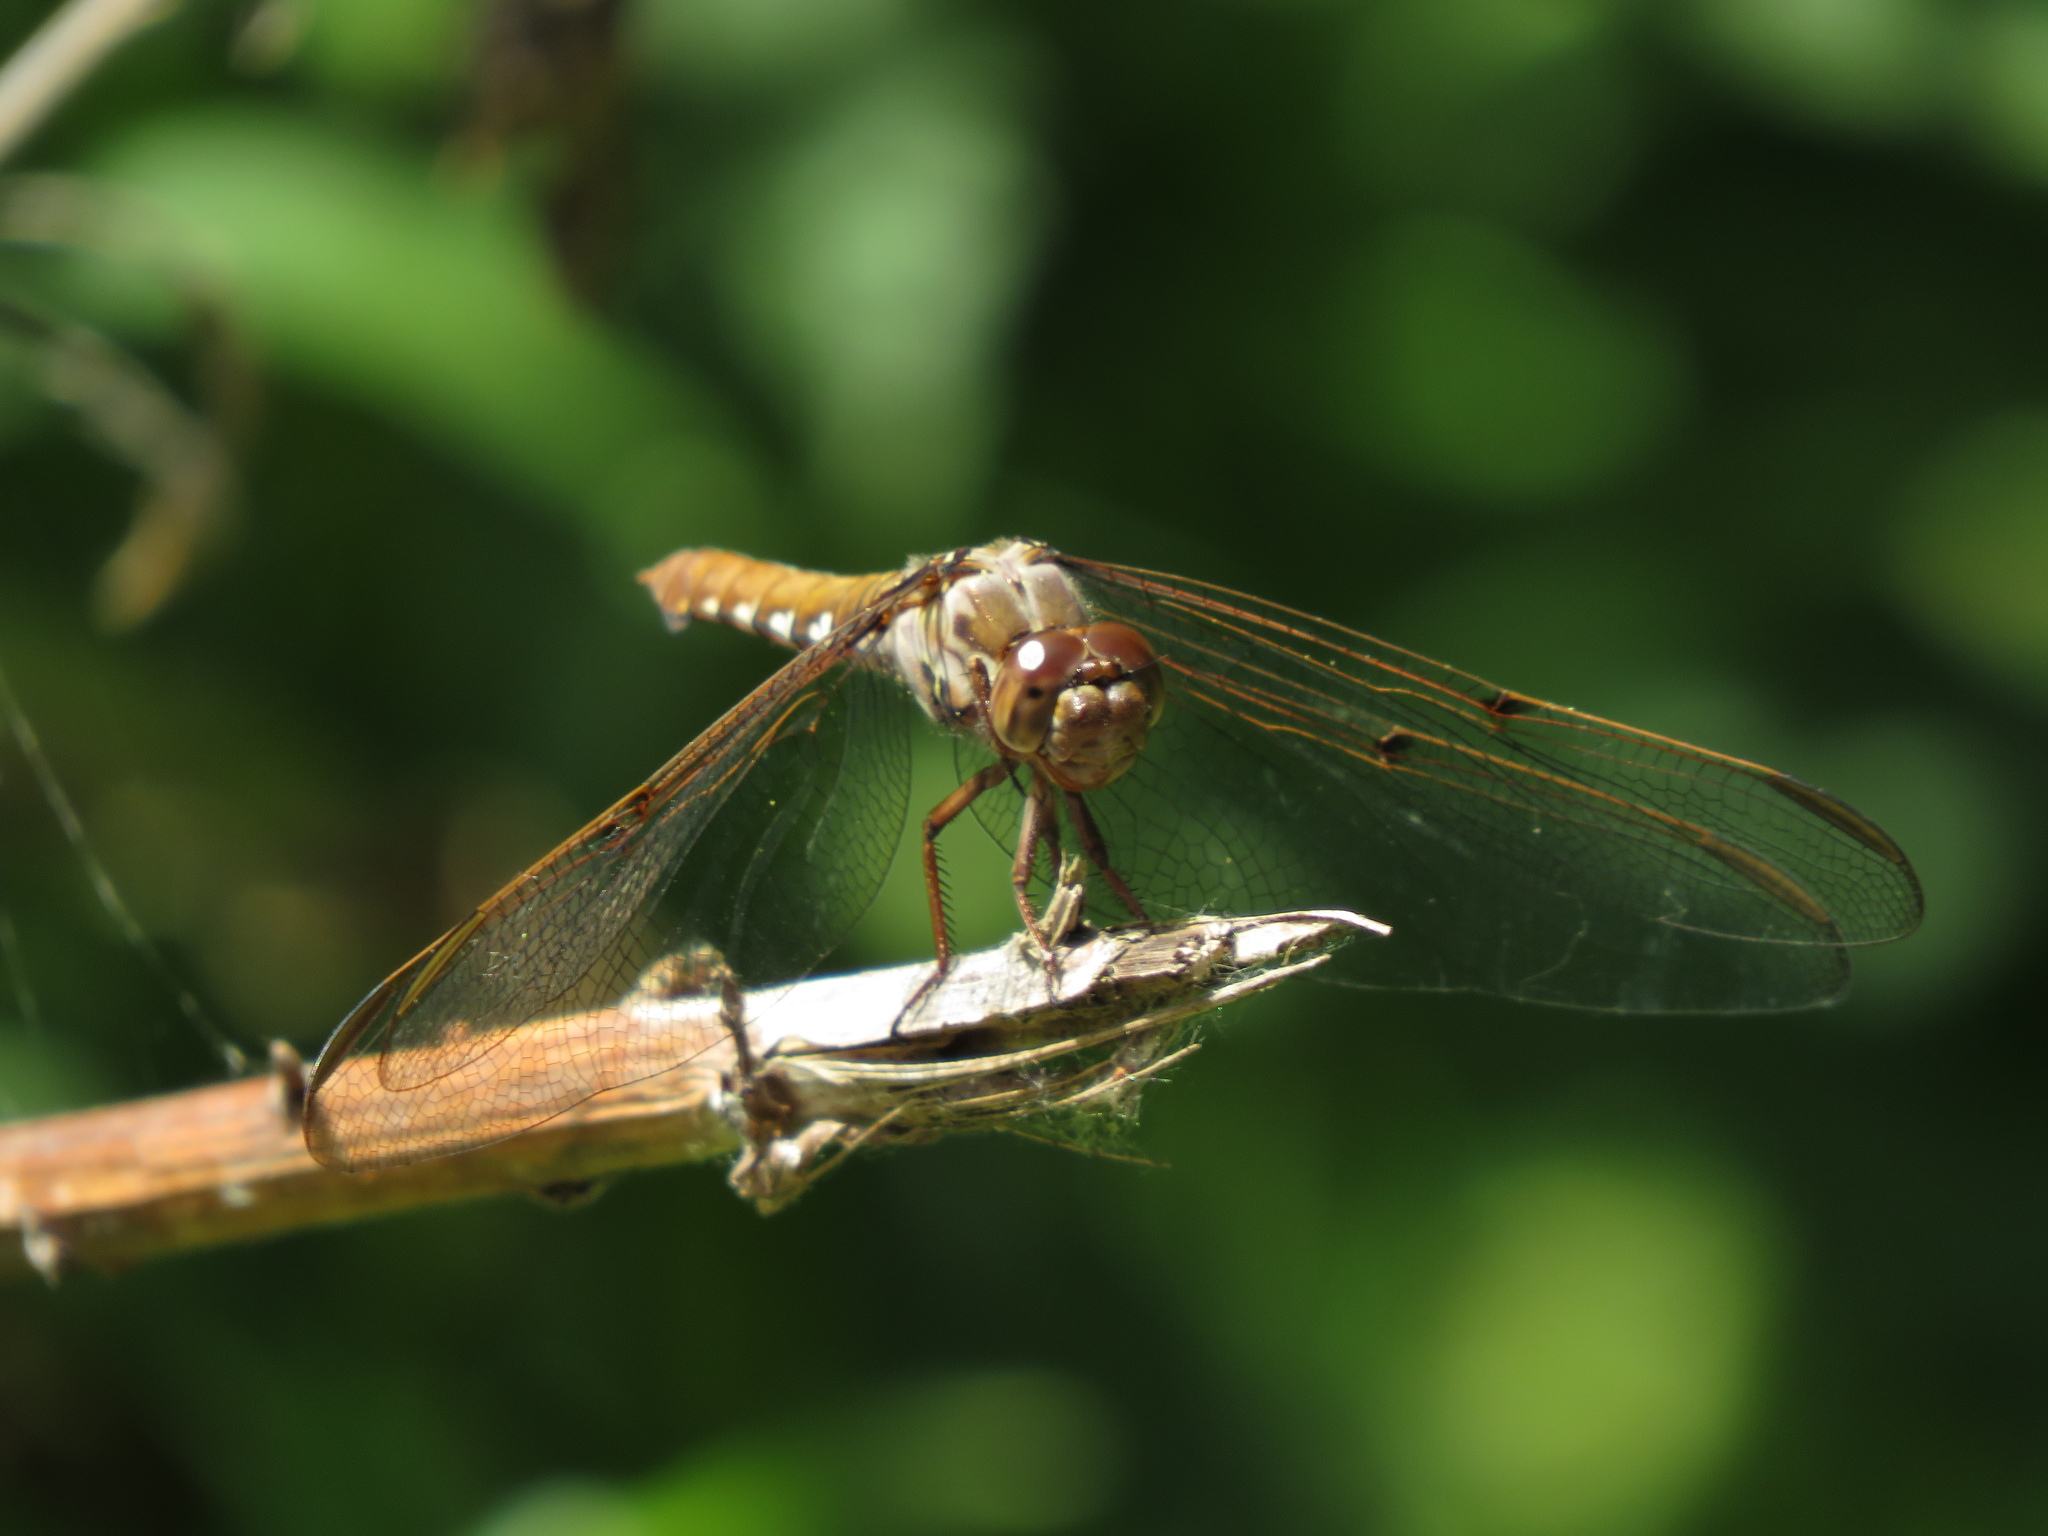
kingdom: Animalia
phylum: Arthropoda
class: Insecta
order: Odonata
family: Libellulidae
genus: Orthemis
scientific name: Orthemis nodiplaga
